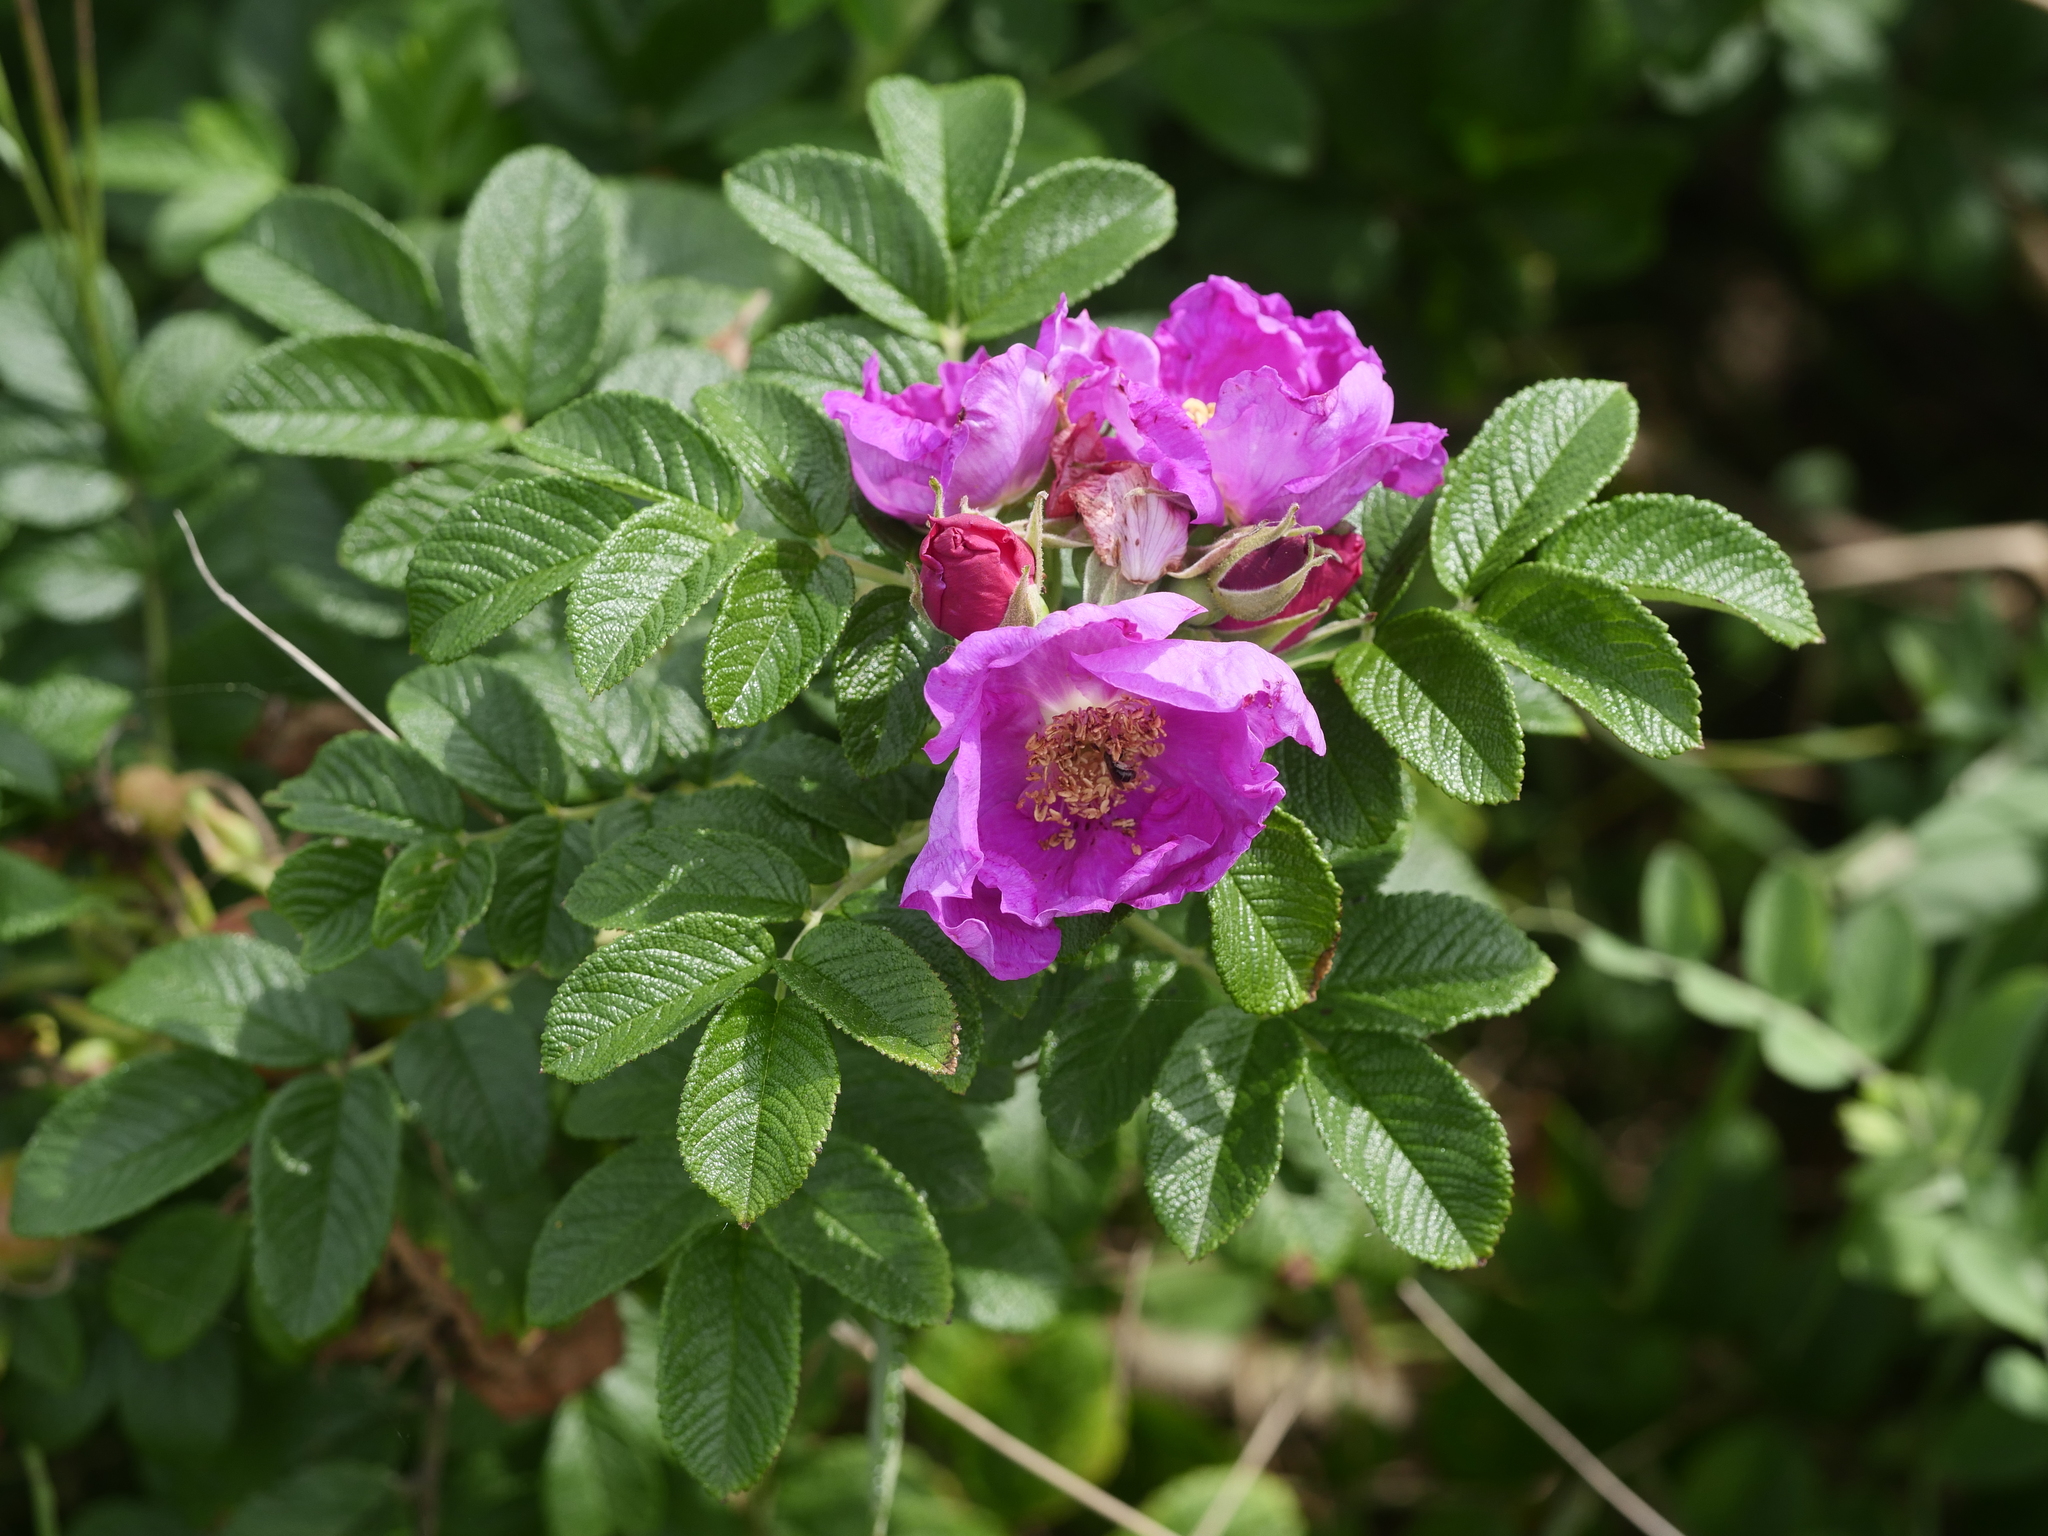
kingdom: Plantae
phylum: Tracheophyta
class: Magnoliopsida
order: Rosales
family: Rosaceae
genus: Rosa
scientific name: Rosa rugosa
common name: Japanese rose
